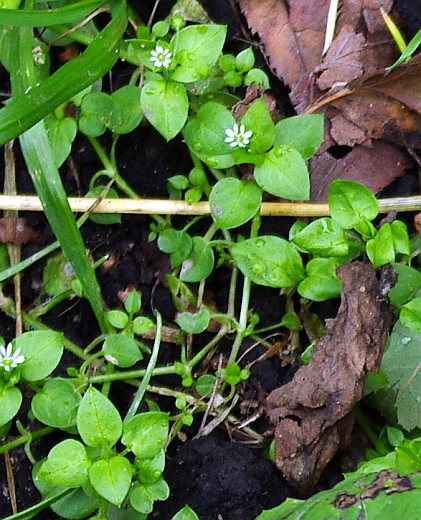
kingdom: Plantae
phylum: Tracheophyta
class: Magnoliopsida
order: Caryophyllales
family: Caryophyllaceae
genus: Stellaria
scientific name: Stellaria media
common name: Common chickweed
